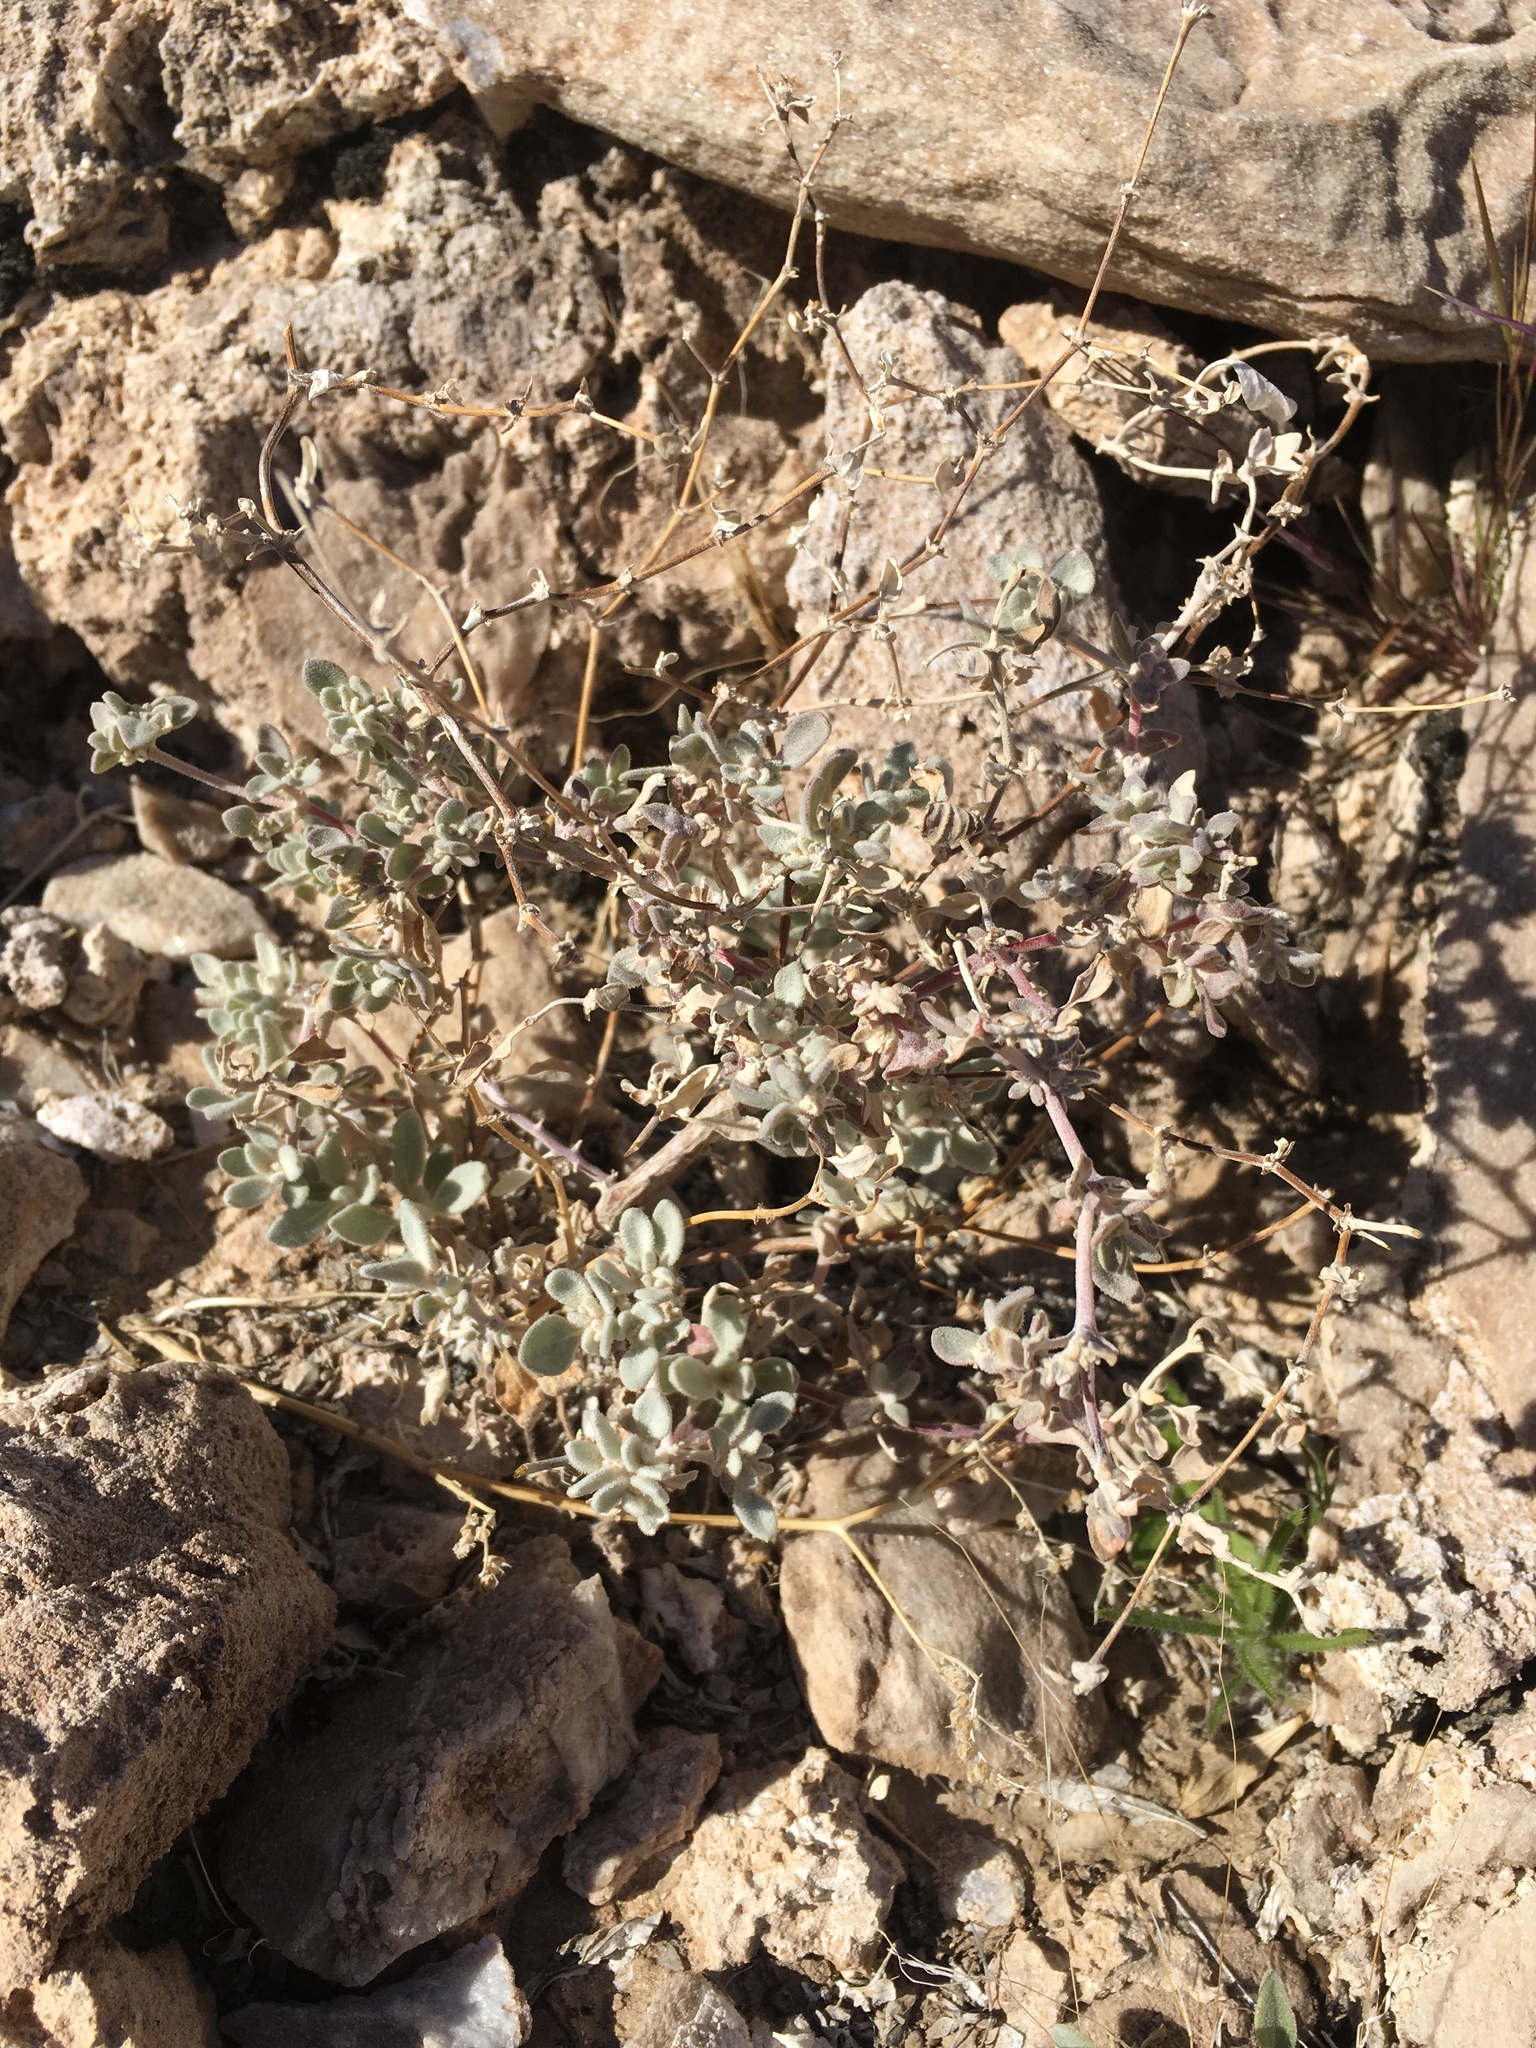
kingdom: Plantae
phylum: Tracheophyta
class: Magnoliopsida
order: Caryophyllales
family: Amaranthaceae
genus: Tidestromia
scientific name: Tidestromia suffruticosa
